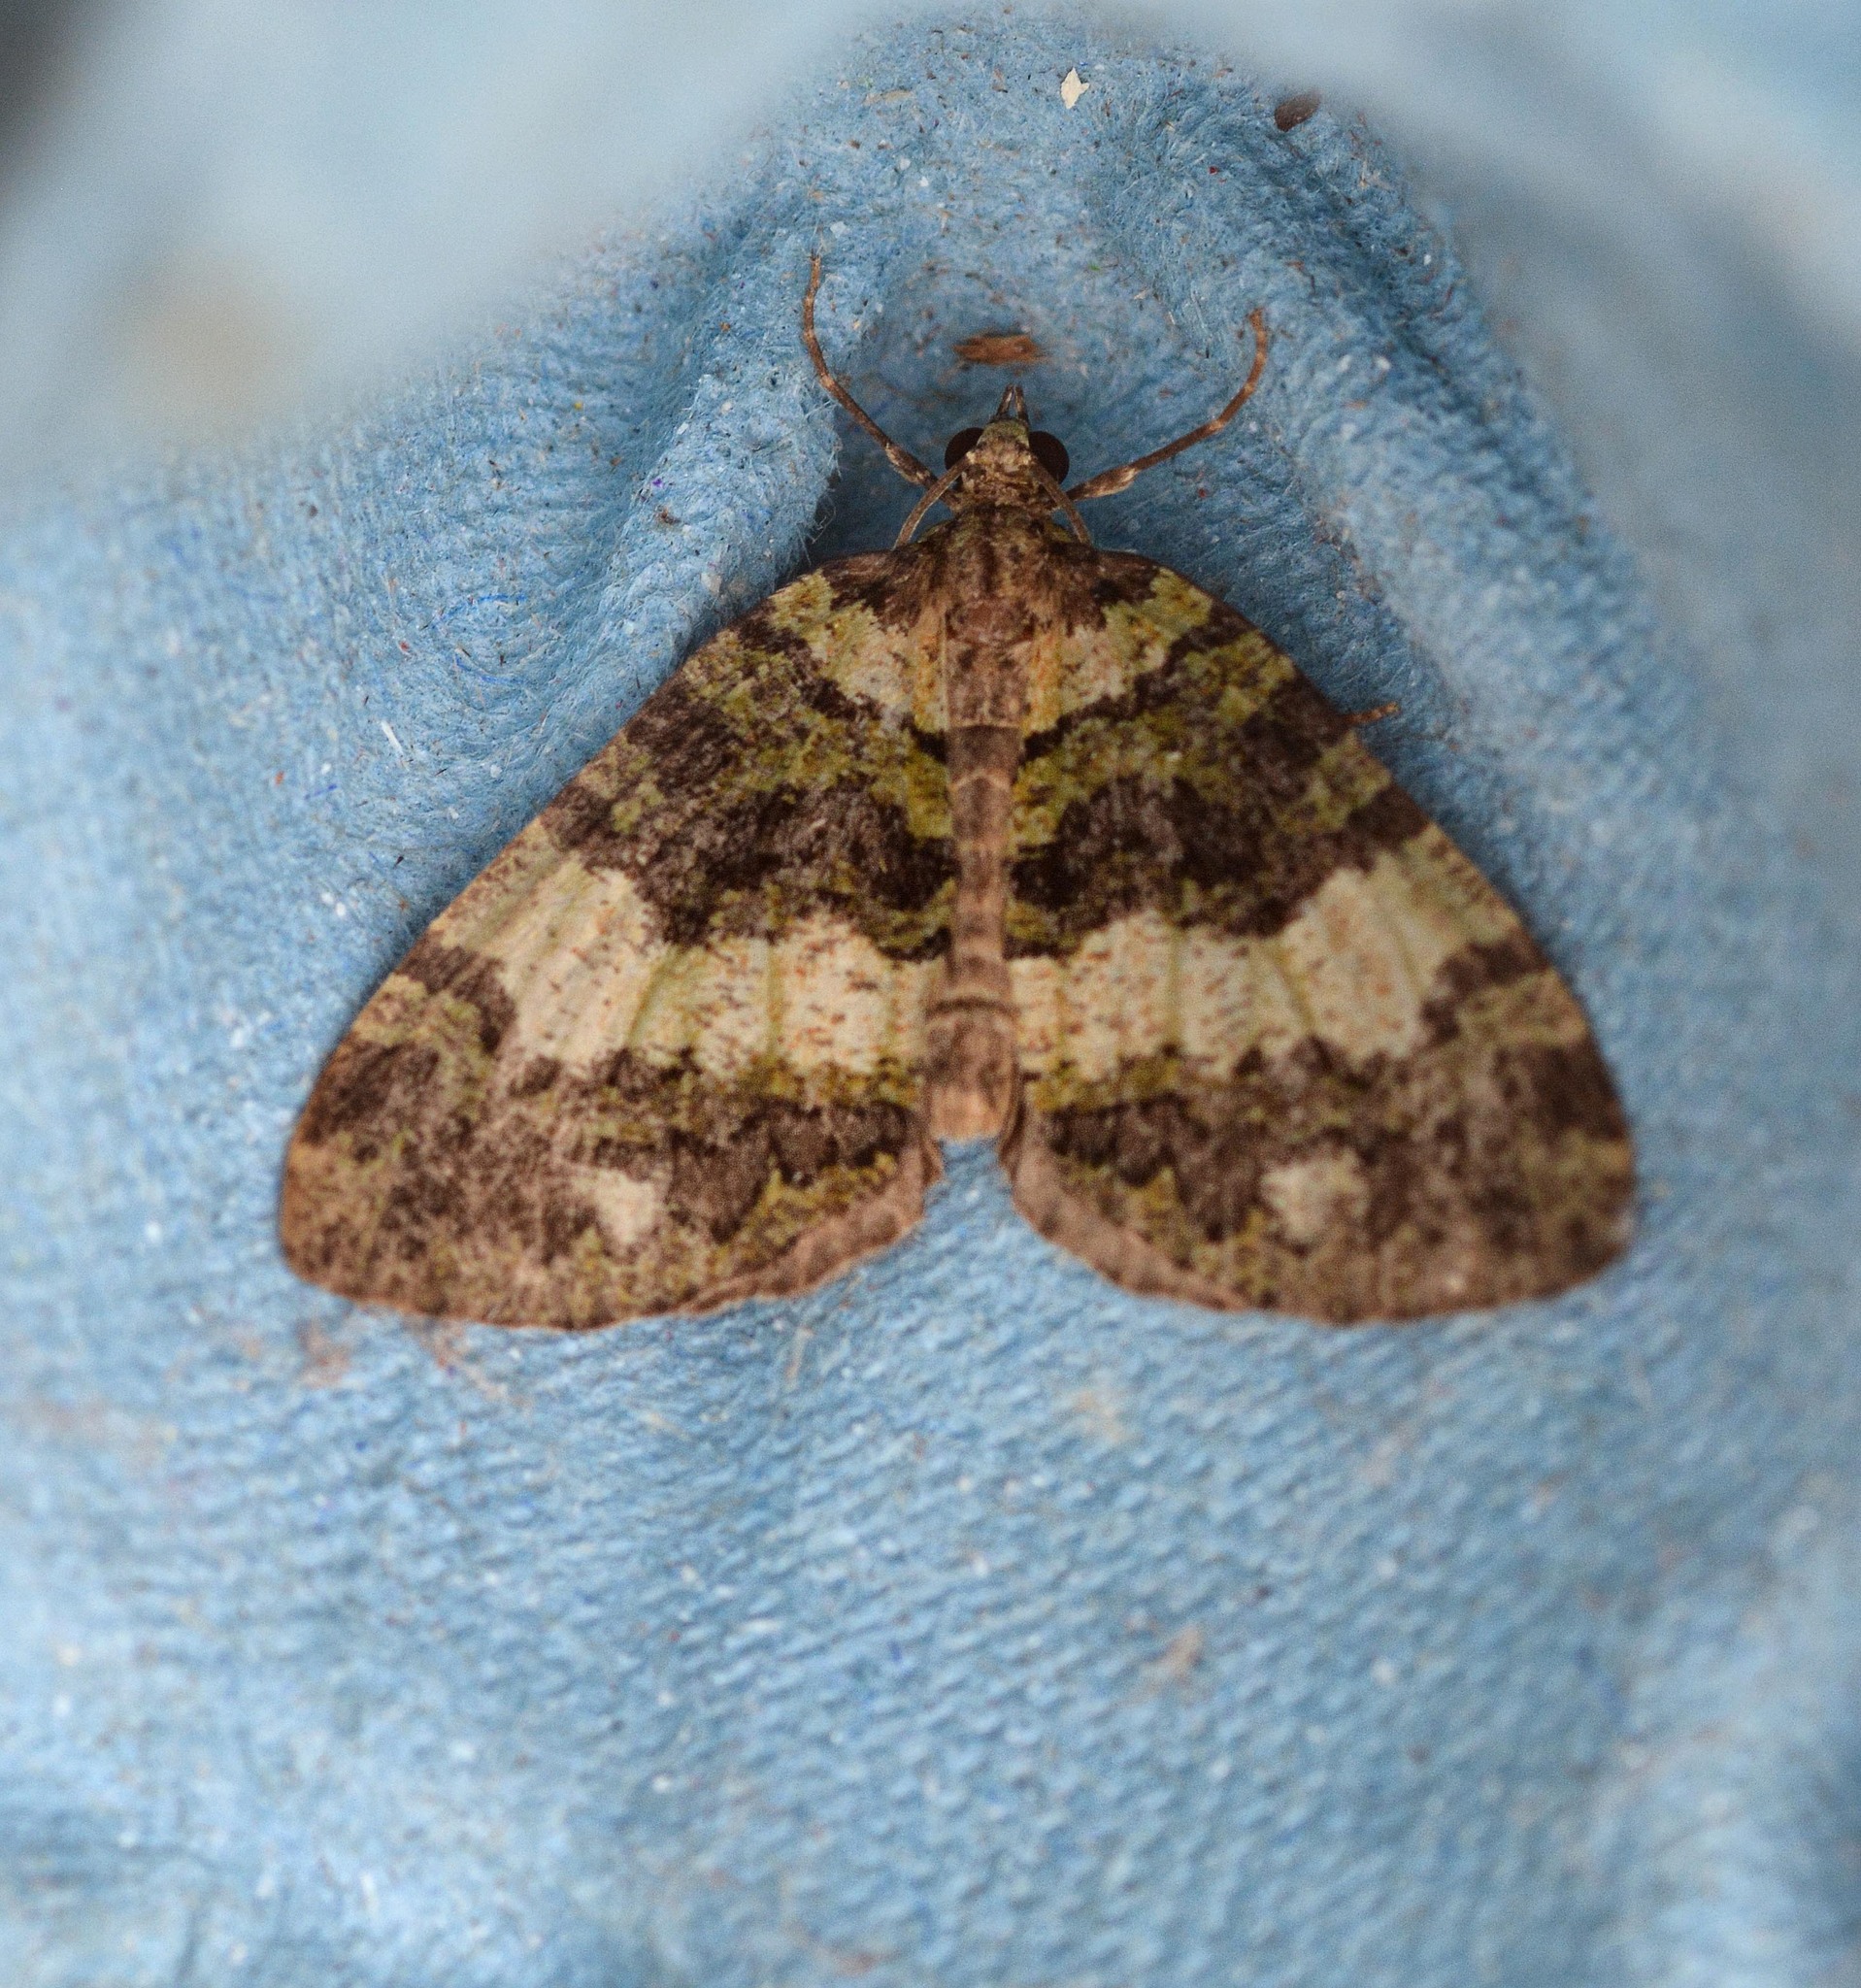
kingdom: Animalia
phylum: Arthropoda
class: Insecta
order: Lepidoptera
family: Geometridae
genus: Hydriomena
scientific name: Hydriomena furcata
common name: July highflyer
